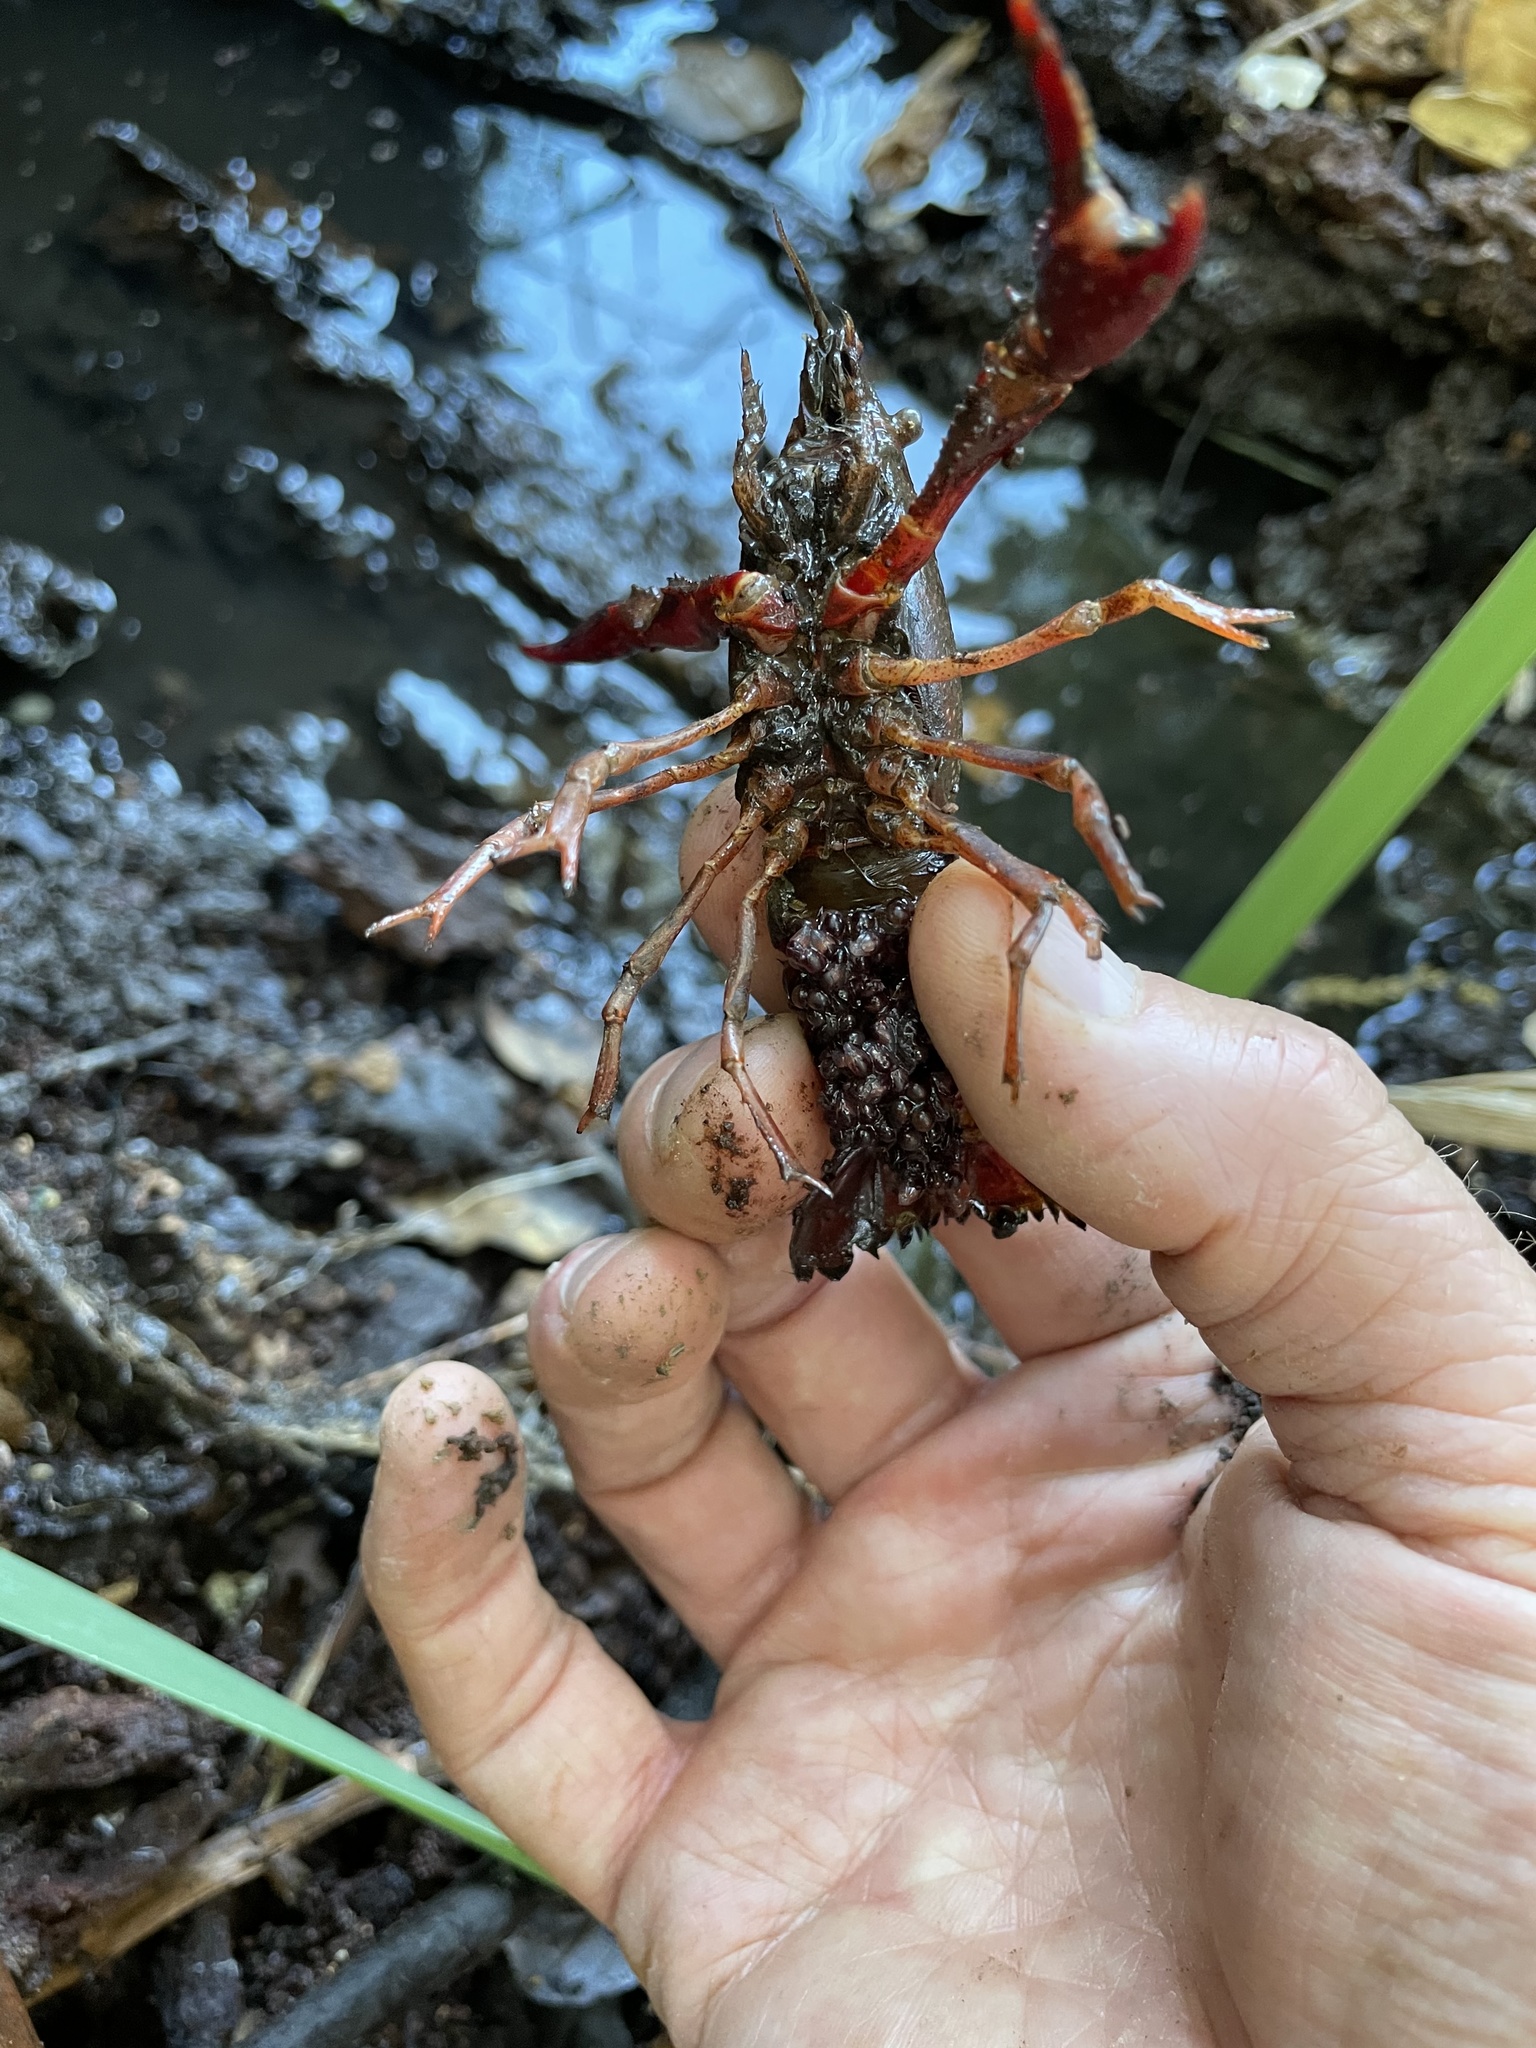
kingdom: Animalia
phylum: Arthropoda
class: Malacostraca
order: Decapoda
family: Cambaridae
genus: Procambarus
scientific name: Procambarus clarkii
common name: Red swamp crayfish
